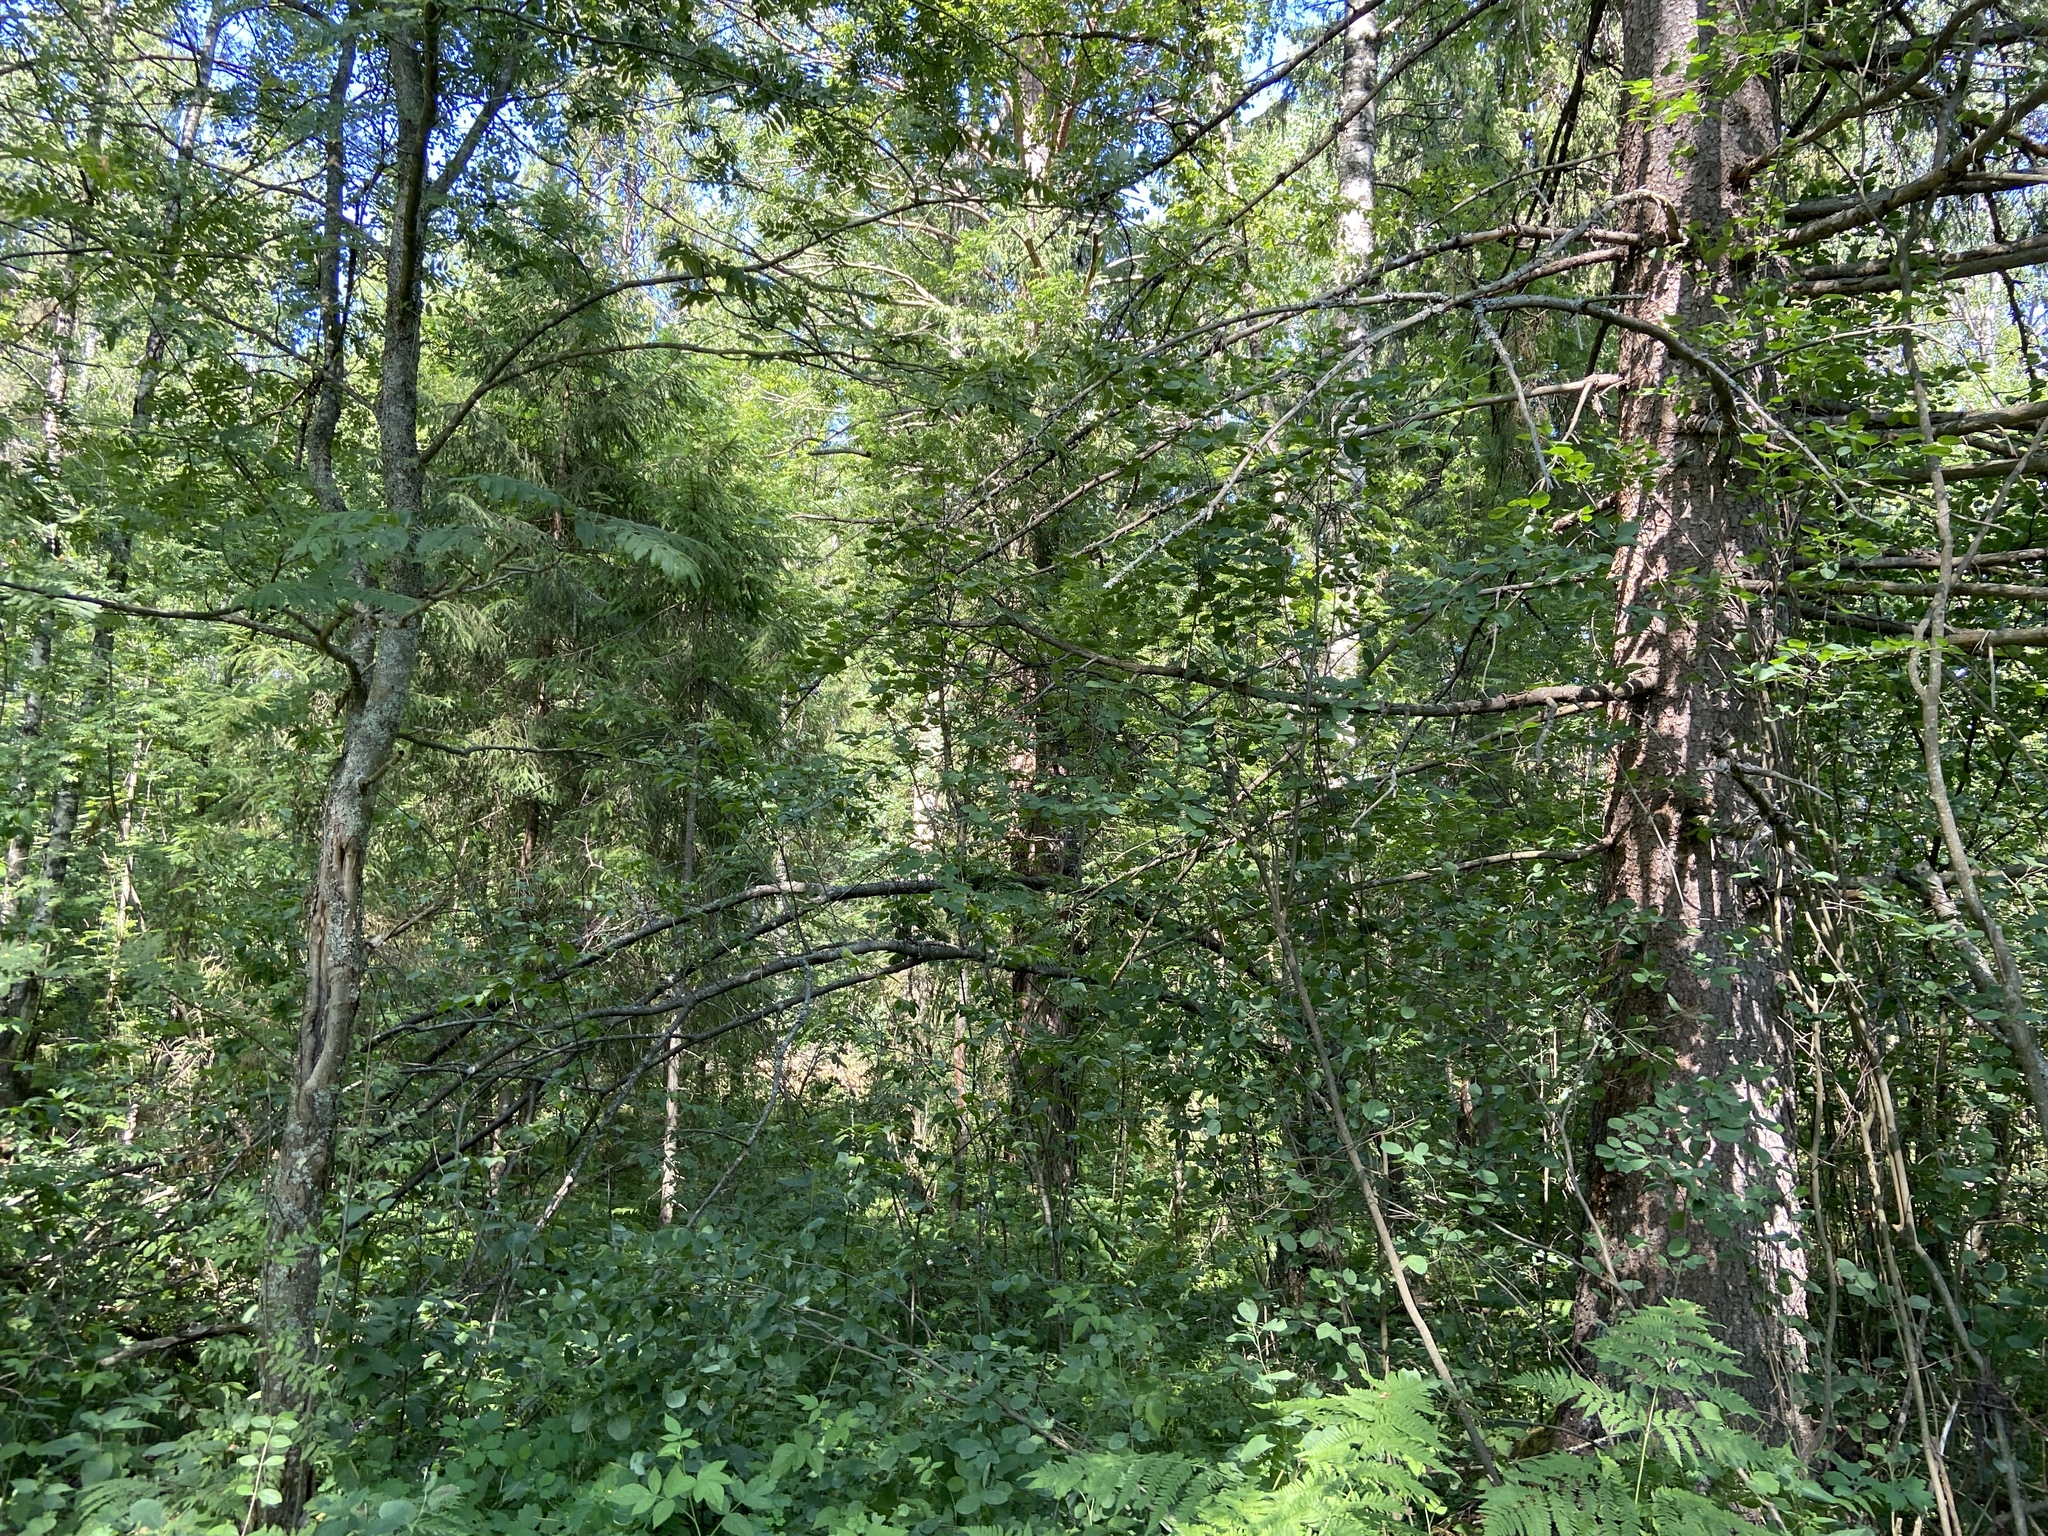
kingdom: Plantae
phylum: Tracheophyta
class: Magnoliopsida
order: Rosales
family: Rosaceae
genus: Sorbus
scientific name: Sorbus aucuparia
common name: Rowan
